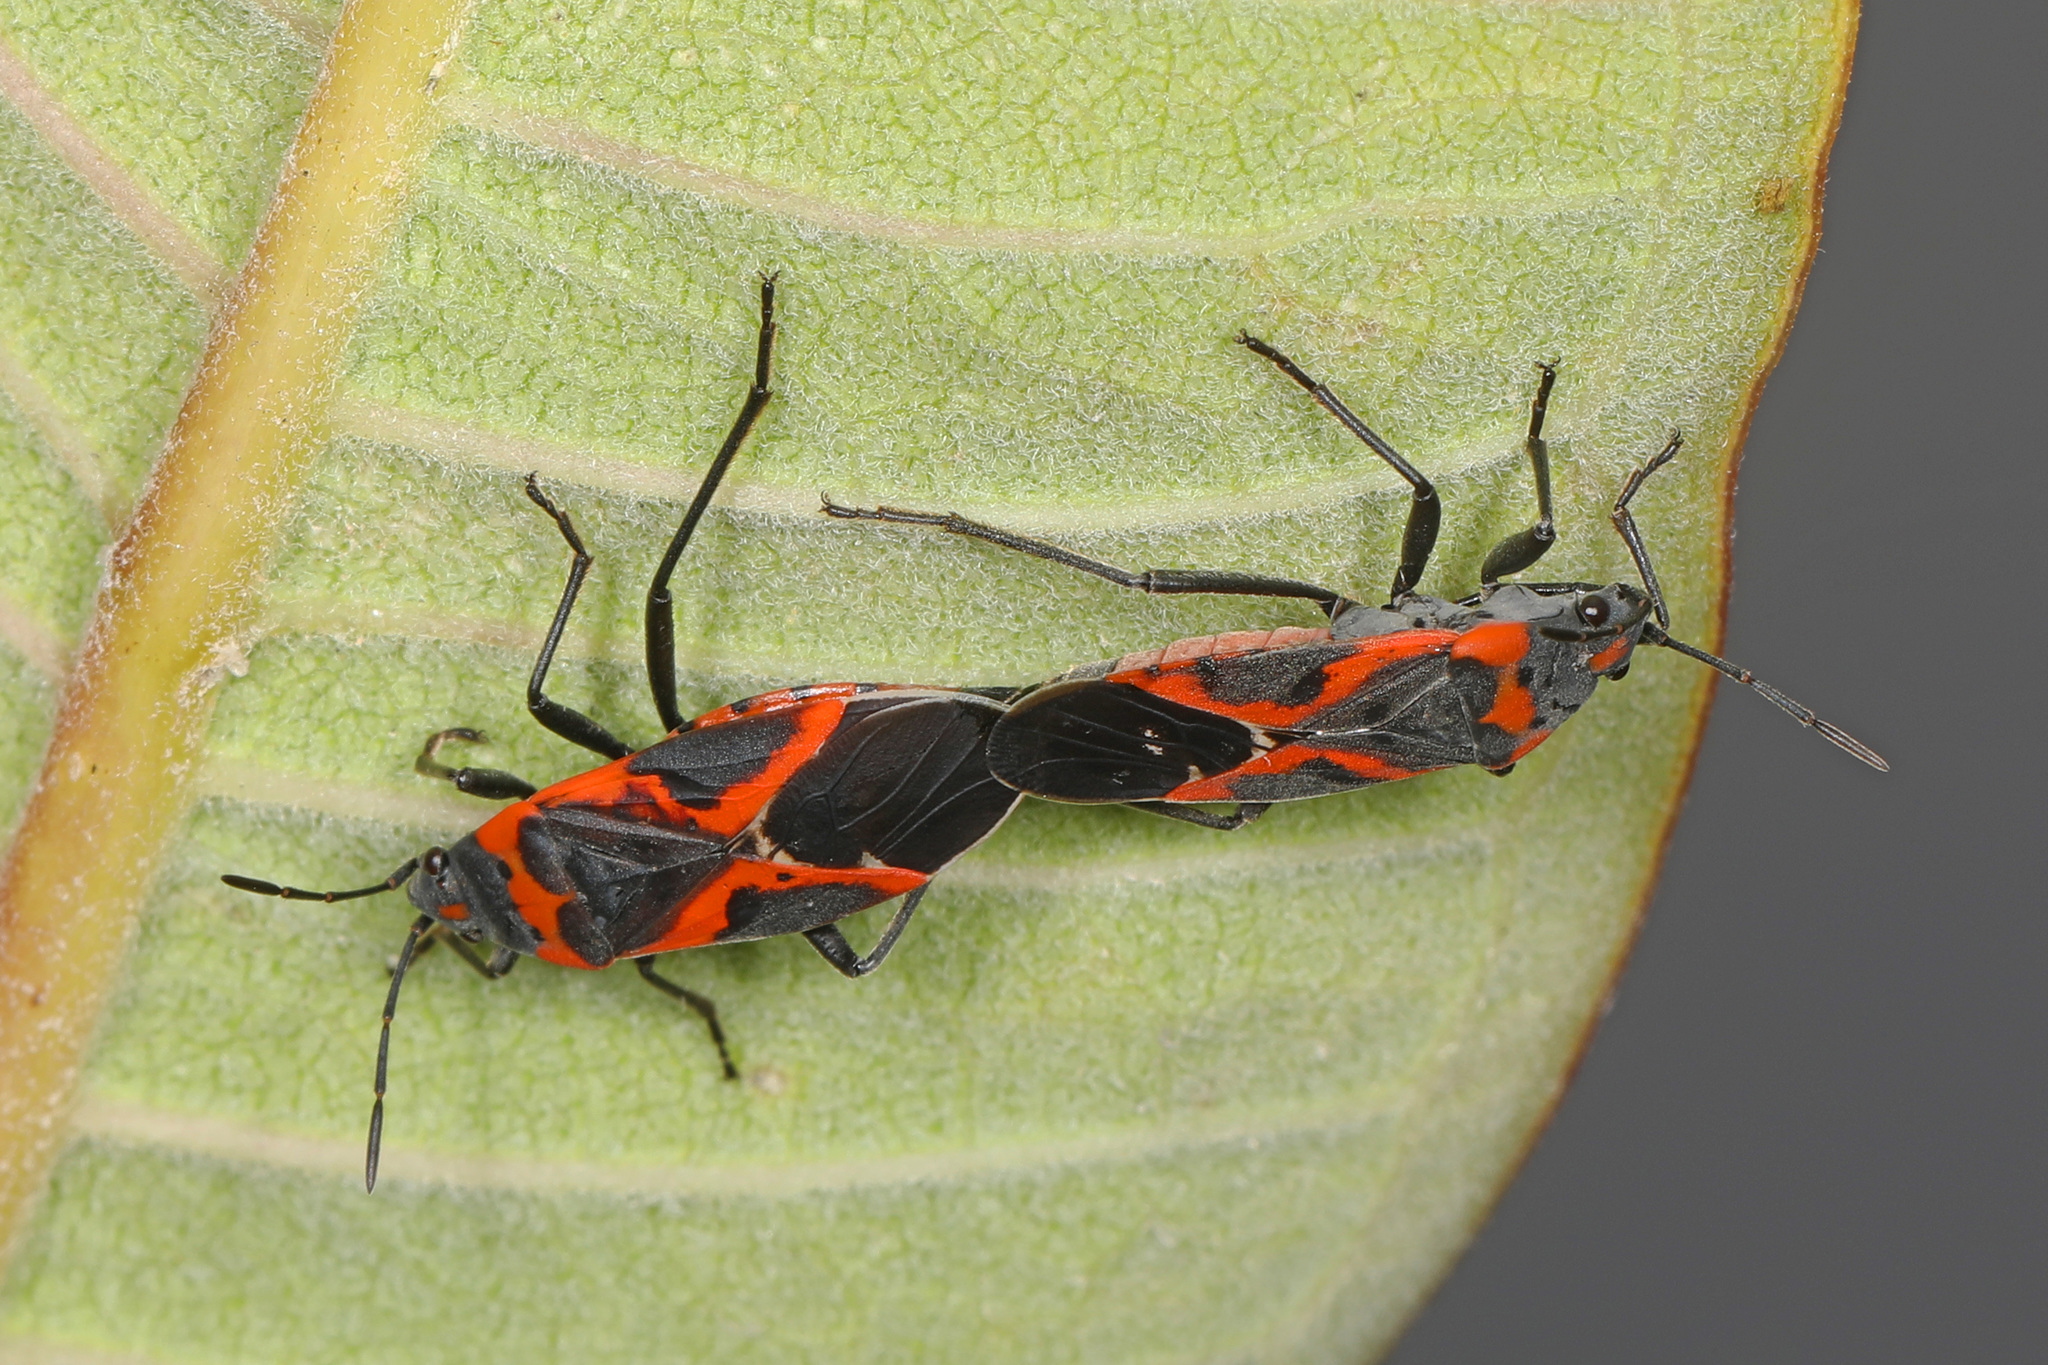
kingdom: Animalia
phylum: Arthropoda
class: Insecta
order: Hemiptera
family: Lygaeidae
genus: Lygaeus
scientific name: Lygaeus kalmii
